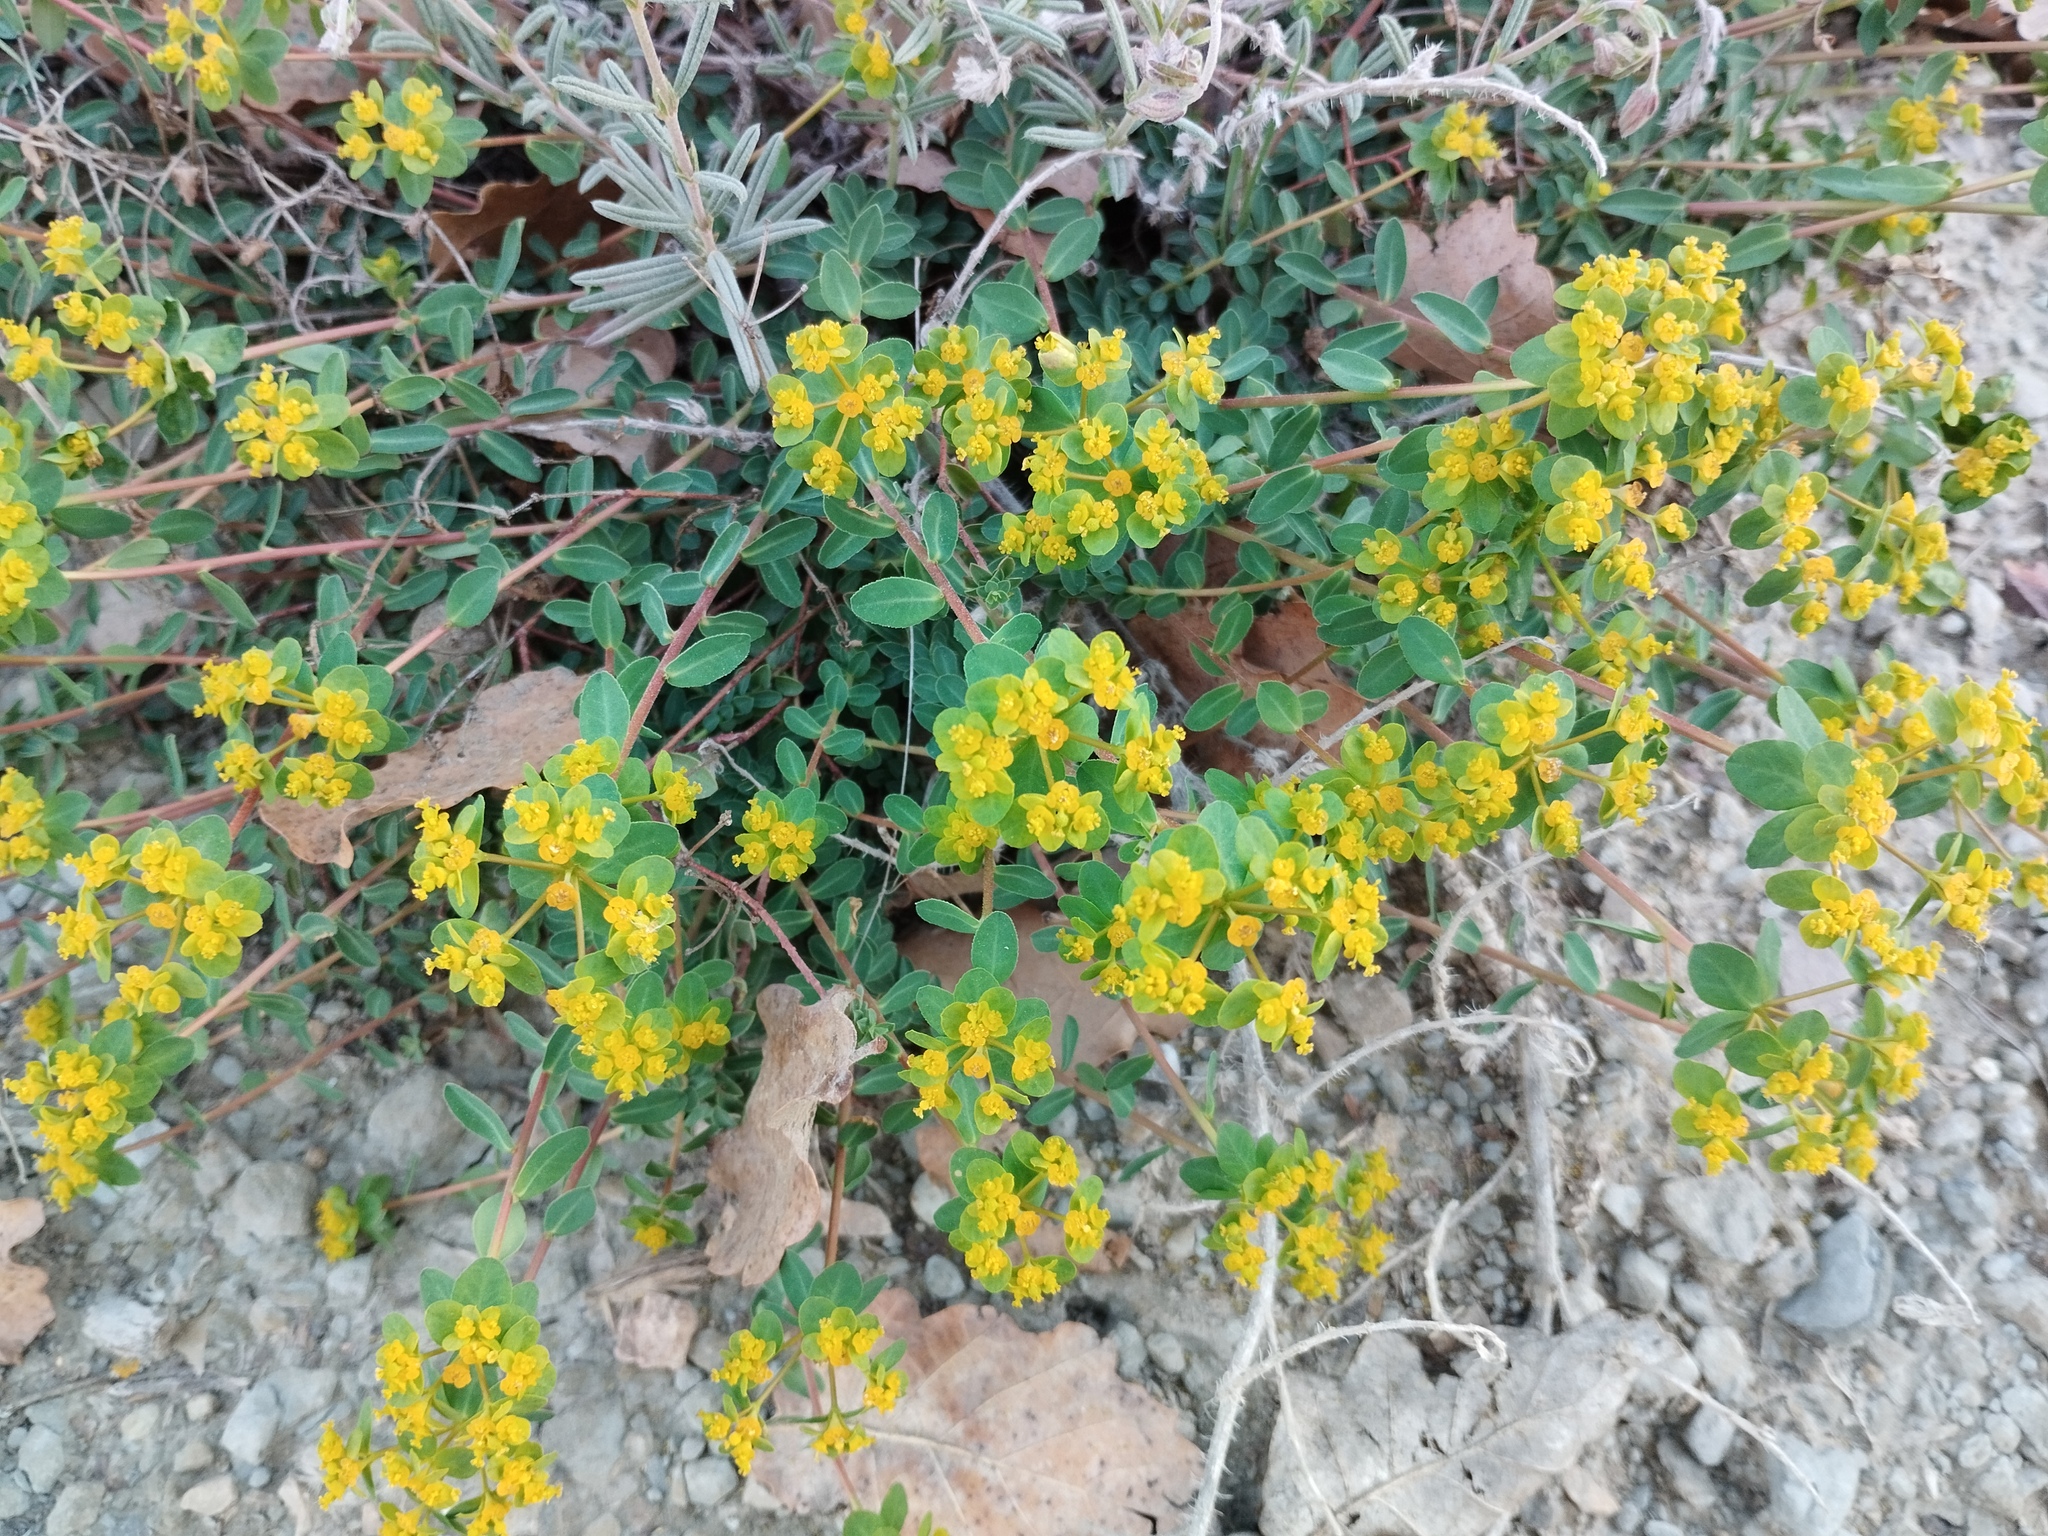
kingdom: Plantae
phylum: Tracheophyta
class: Magnoliopsida
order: Malpighiales
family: Euphorbiaceae
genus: Euphorbia
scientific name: Euphorbia flavicoma
